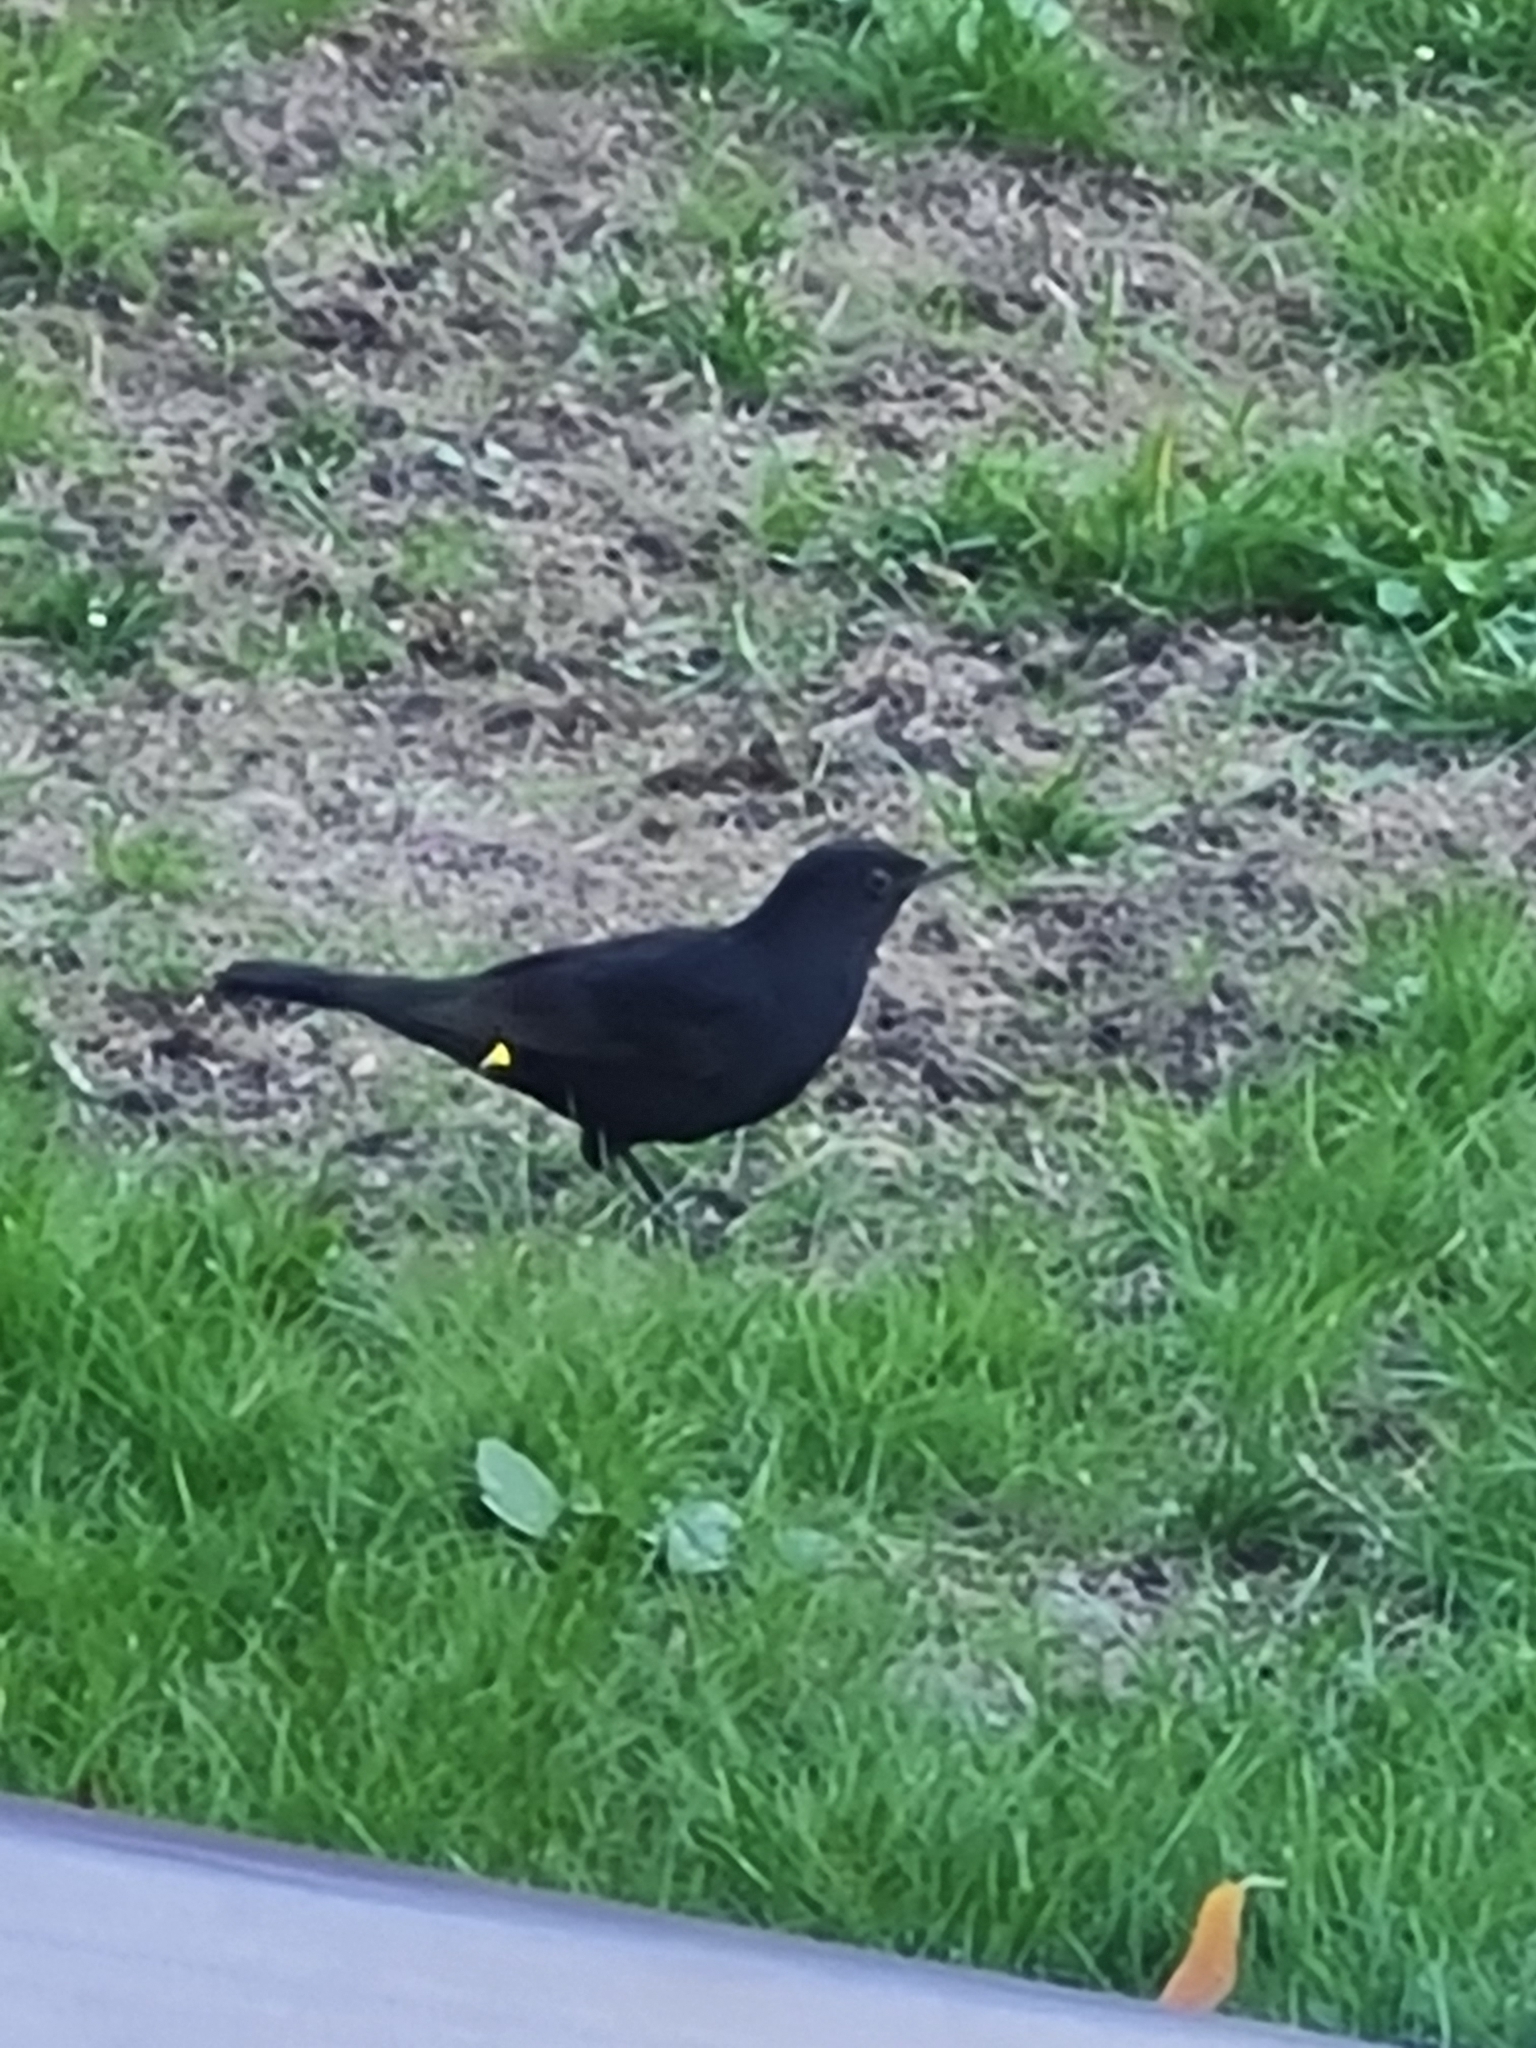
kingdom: Animalia
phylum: Chordata
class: Aves
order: Passeriformes
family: Turdidae
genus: Turdus
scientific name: Turdus merula
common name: Common blackbird
